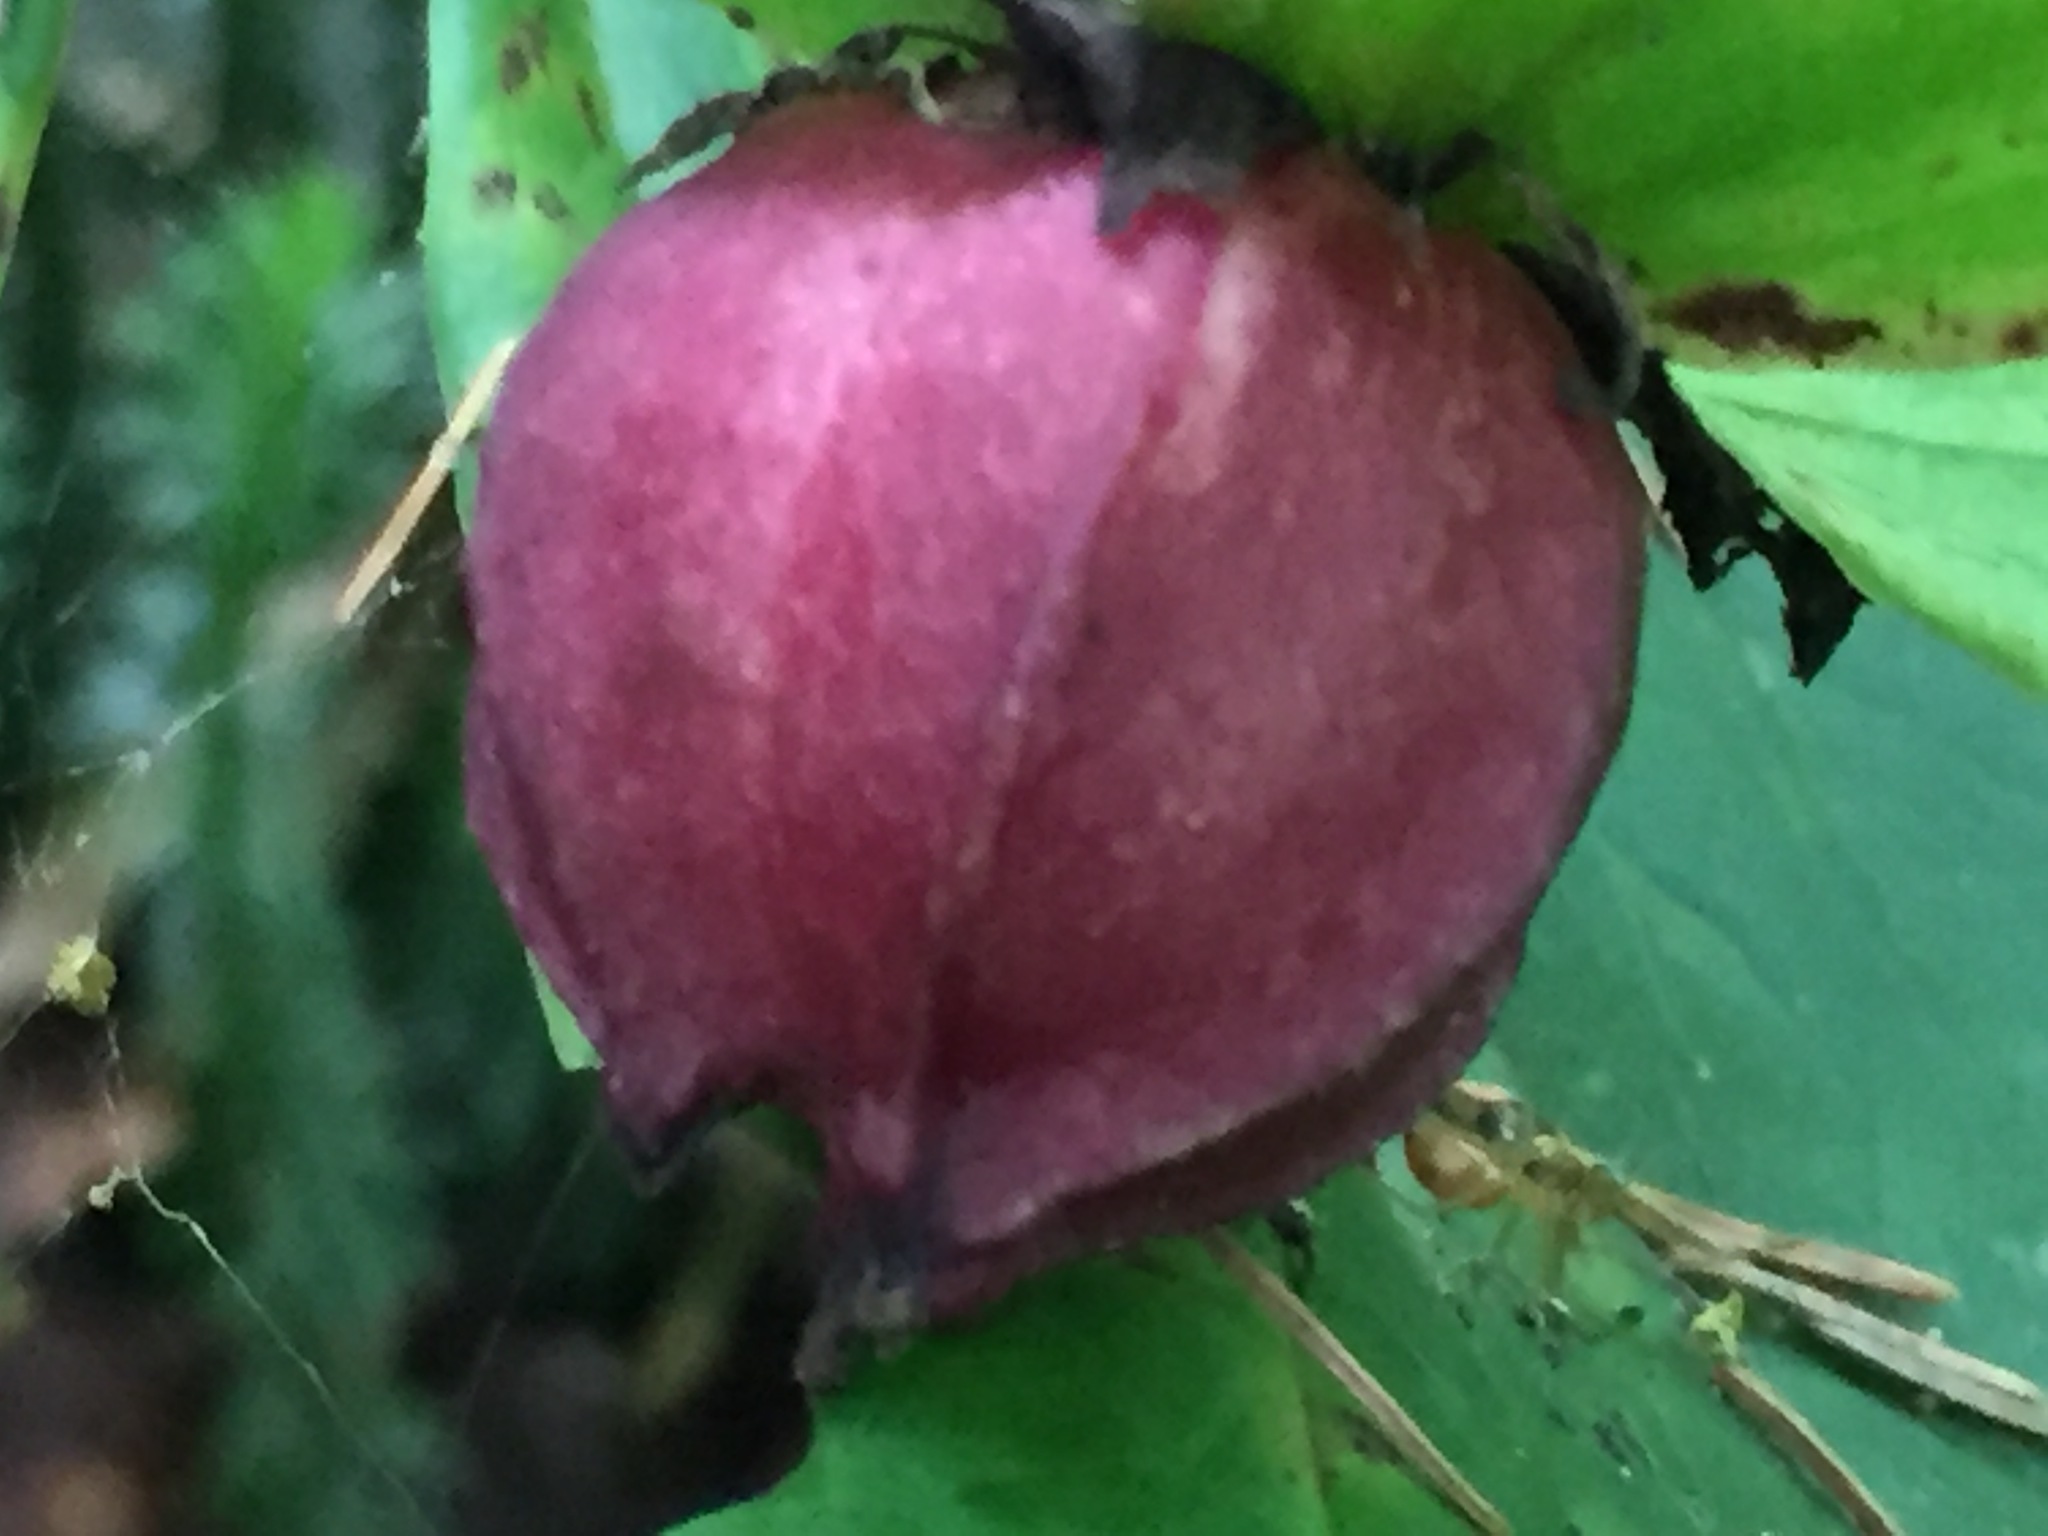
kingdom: Plantae
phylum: Tracheophyta
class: Liliopsida
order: Liliales
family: Melanthiaceae
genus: Trillium
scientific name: Trillium erectum
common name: Purple trillium
